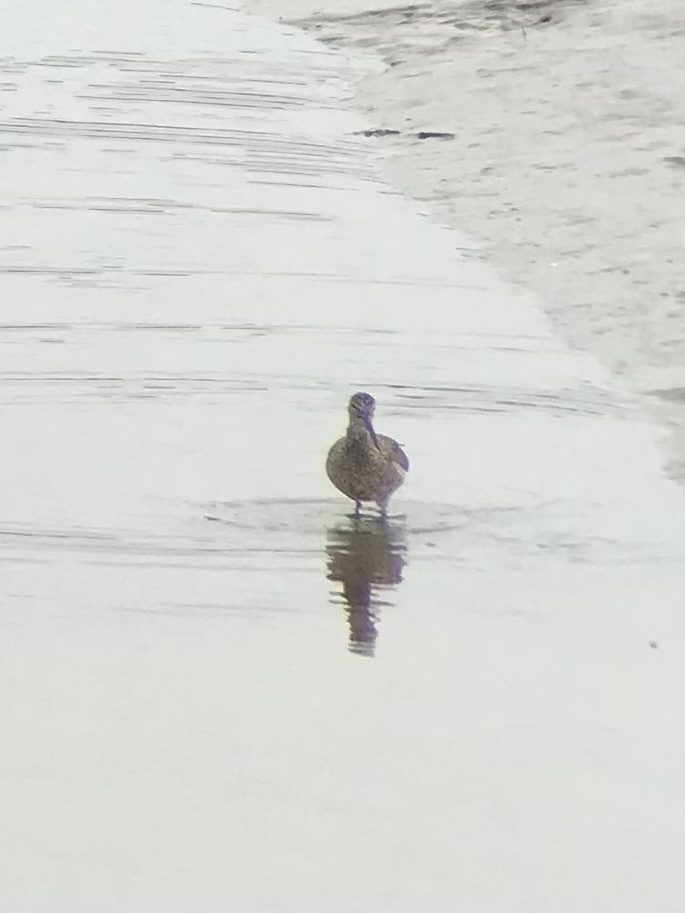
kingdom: Animalia
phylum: Chordata
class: Aves
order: Charadriiformes
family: Scolopacidae
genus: Tringa
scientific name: Tringa semipalmata
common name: Willet
